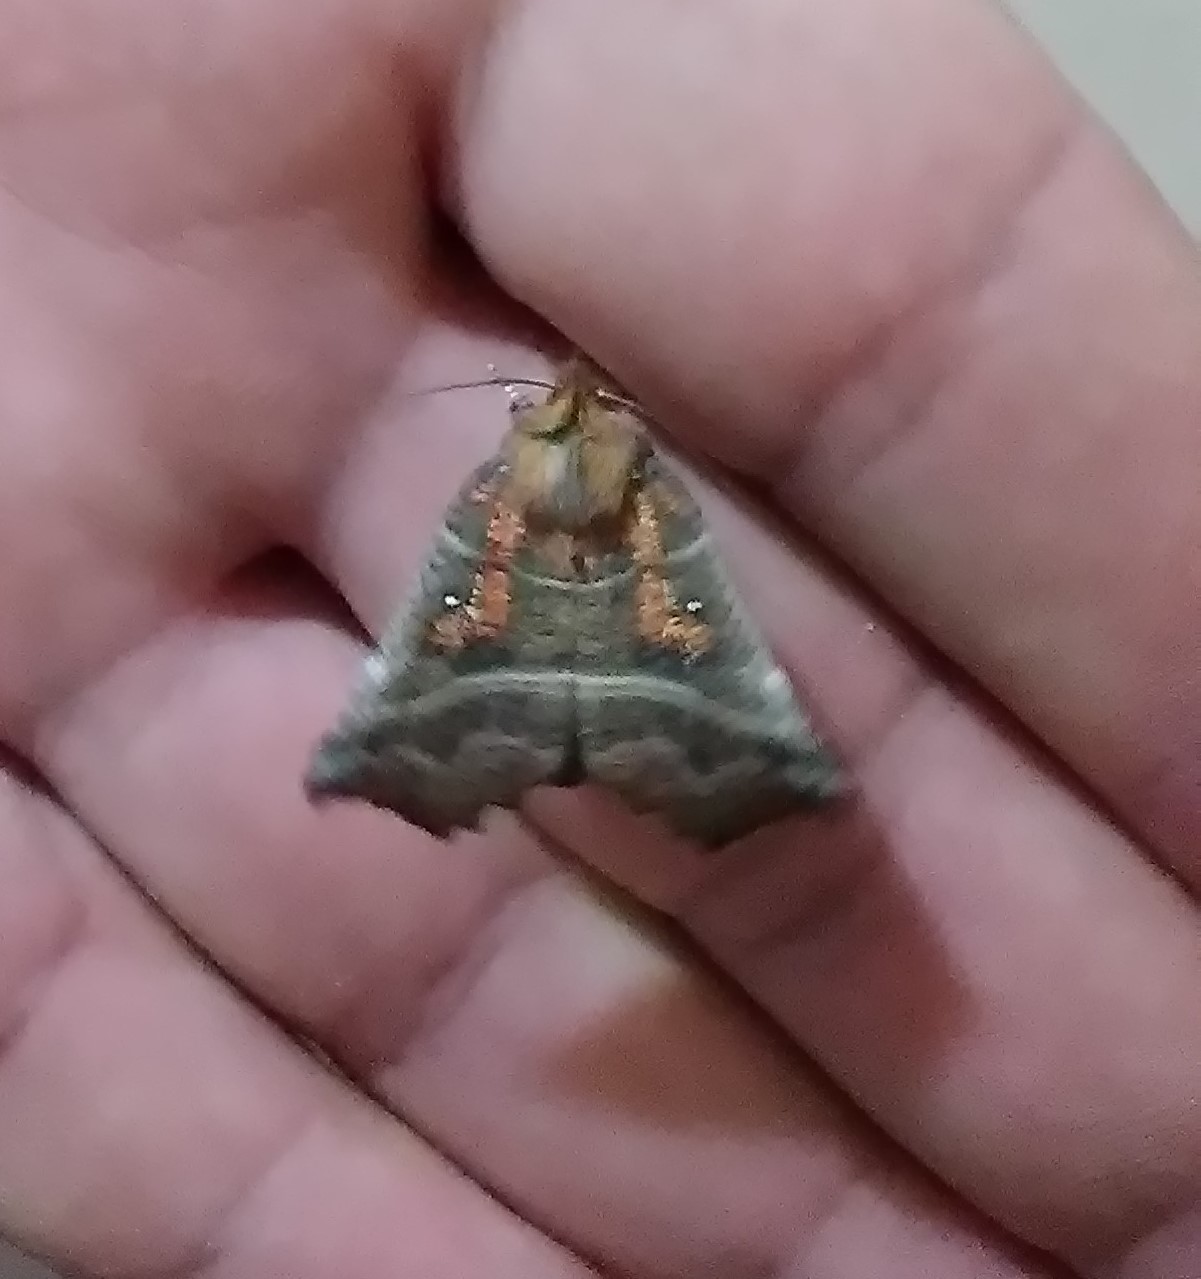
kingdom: Animalia
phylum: Arthropoda
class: Insecta
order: Lepidoptera
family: Erebidae
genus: Scoliopteryx
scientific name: Scoliopteryx libatrix
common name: Herald
